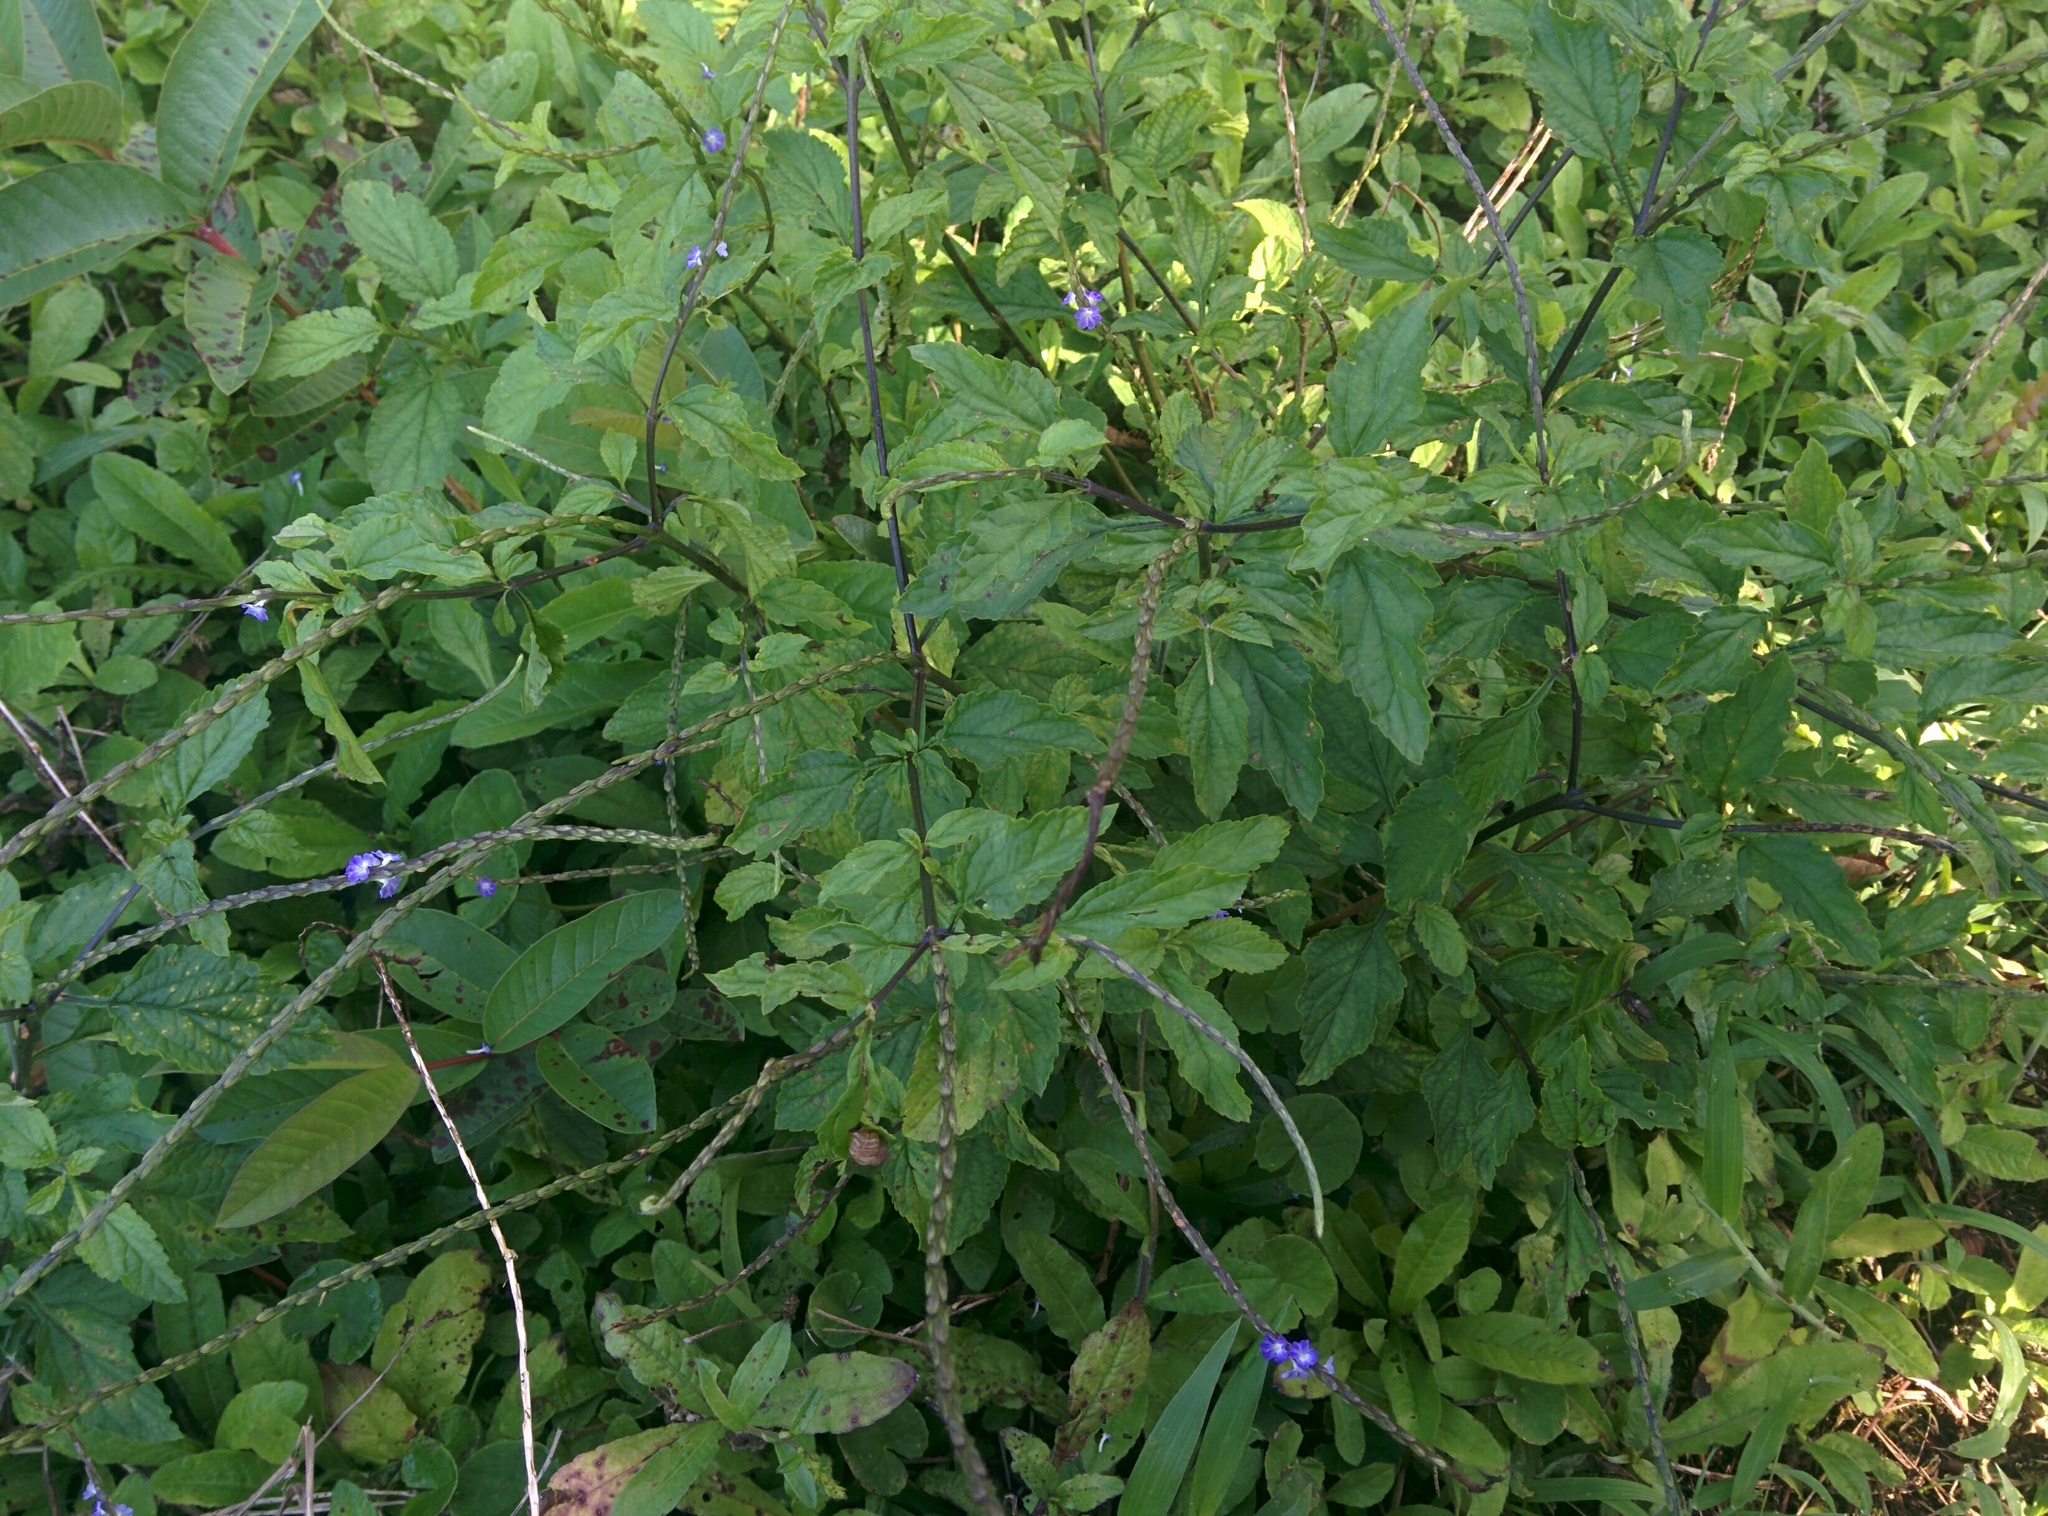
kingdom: Plantae
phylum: Tracheophyta
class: Magnoliopsida
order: Lamiales
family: Verbenaceae
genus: Stachytarpheta
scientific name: Stachytarpheta cayennensis
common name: Cayenne porterweed
